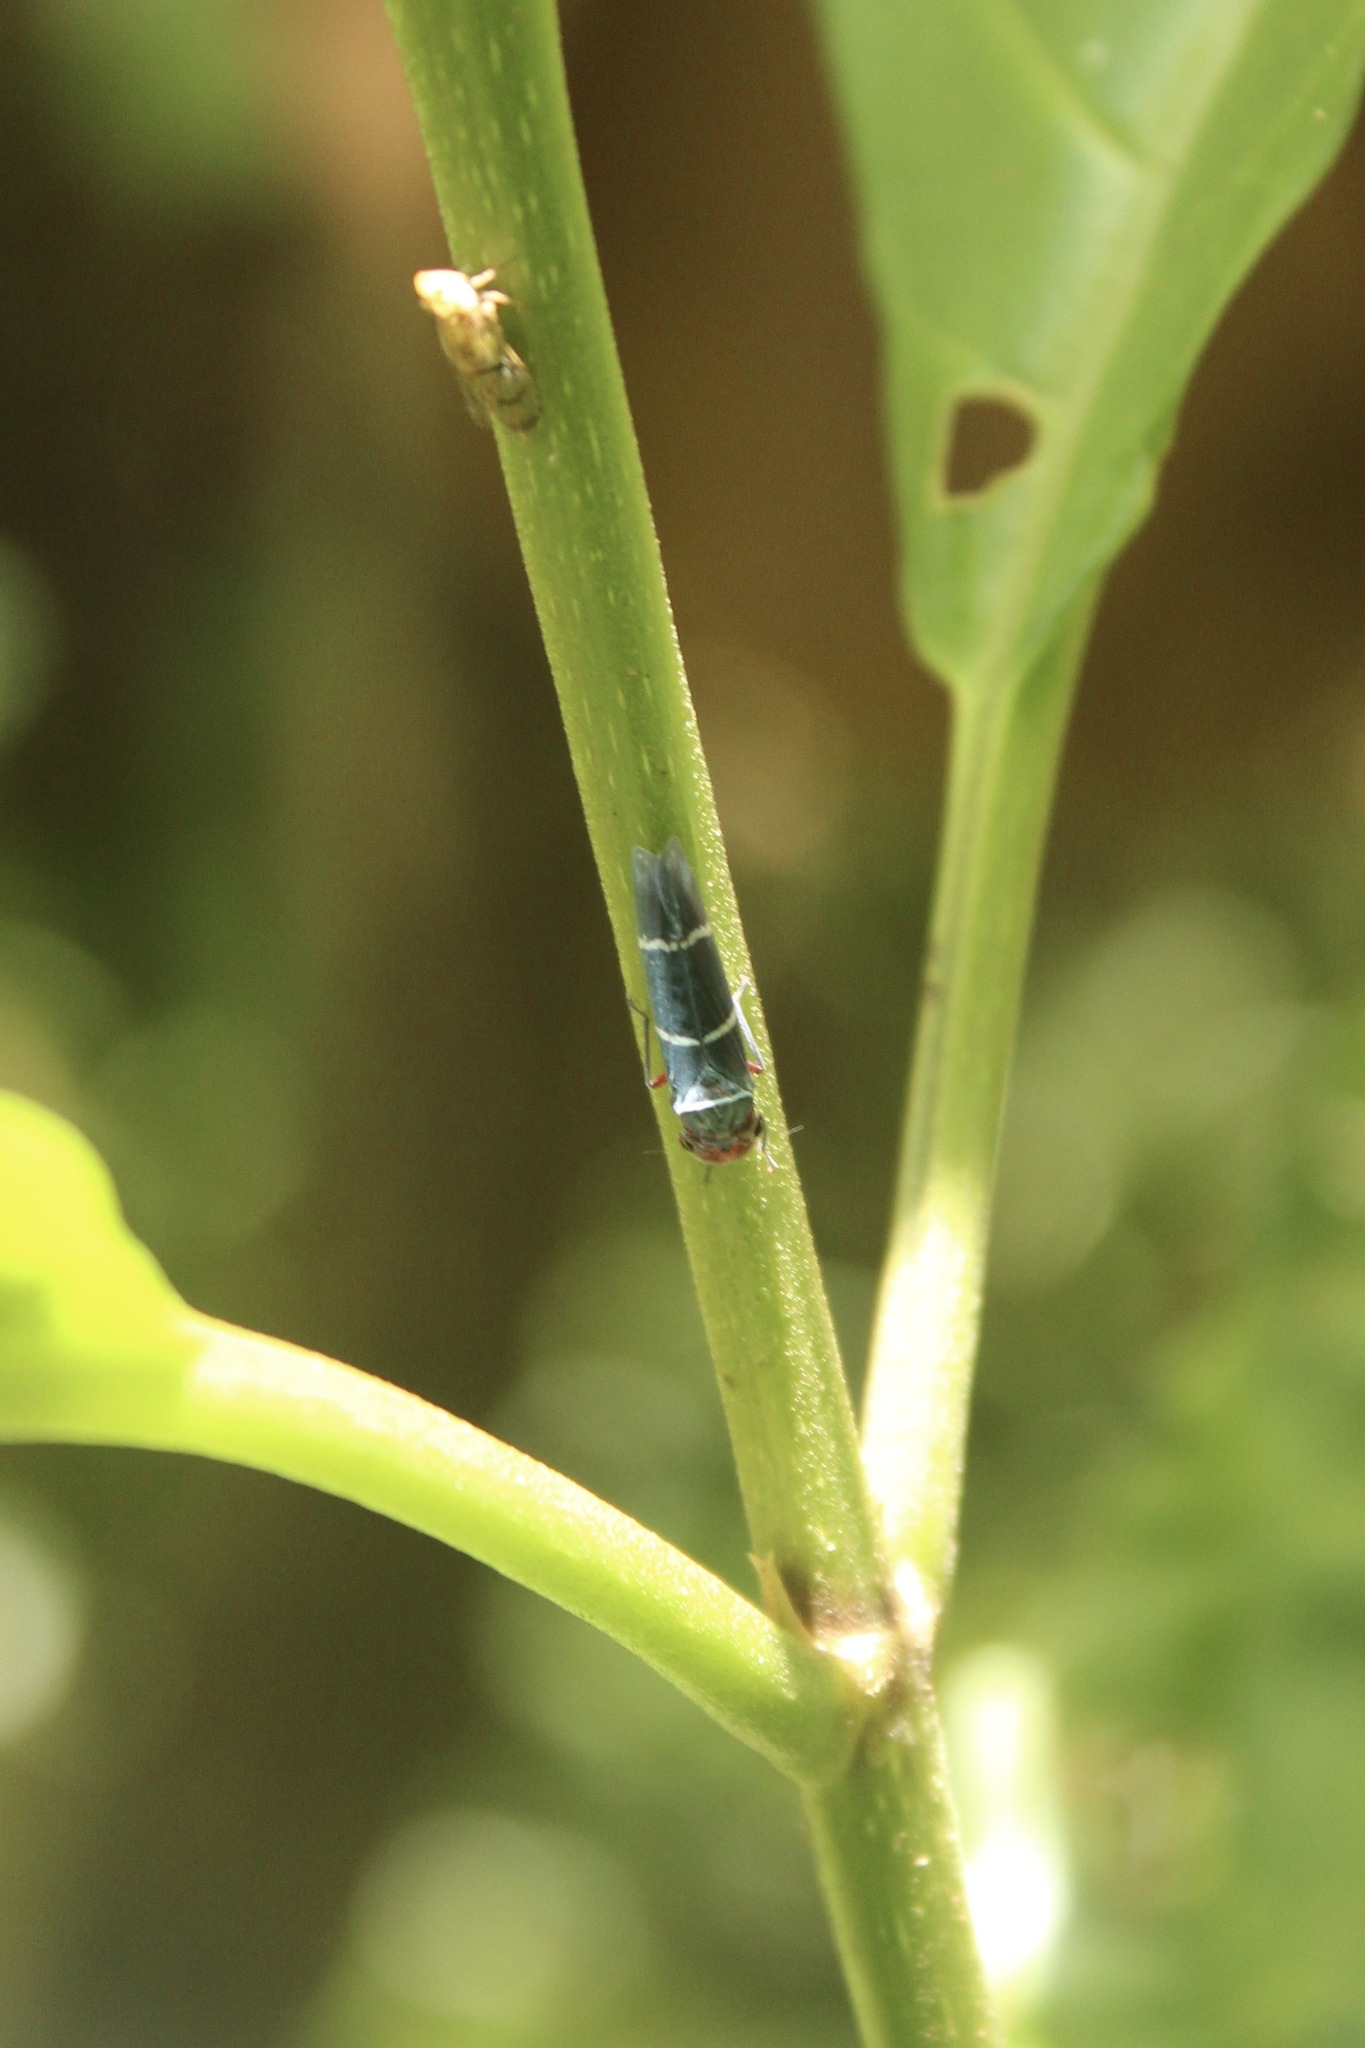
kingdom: Animalia
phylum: Arthropoda
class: Insecta
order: Hemiptera
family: Cicadellidae
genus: Amblyscarta
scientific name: Amblyscarta ruficeps
